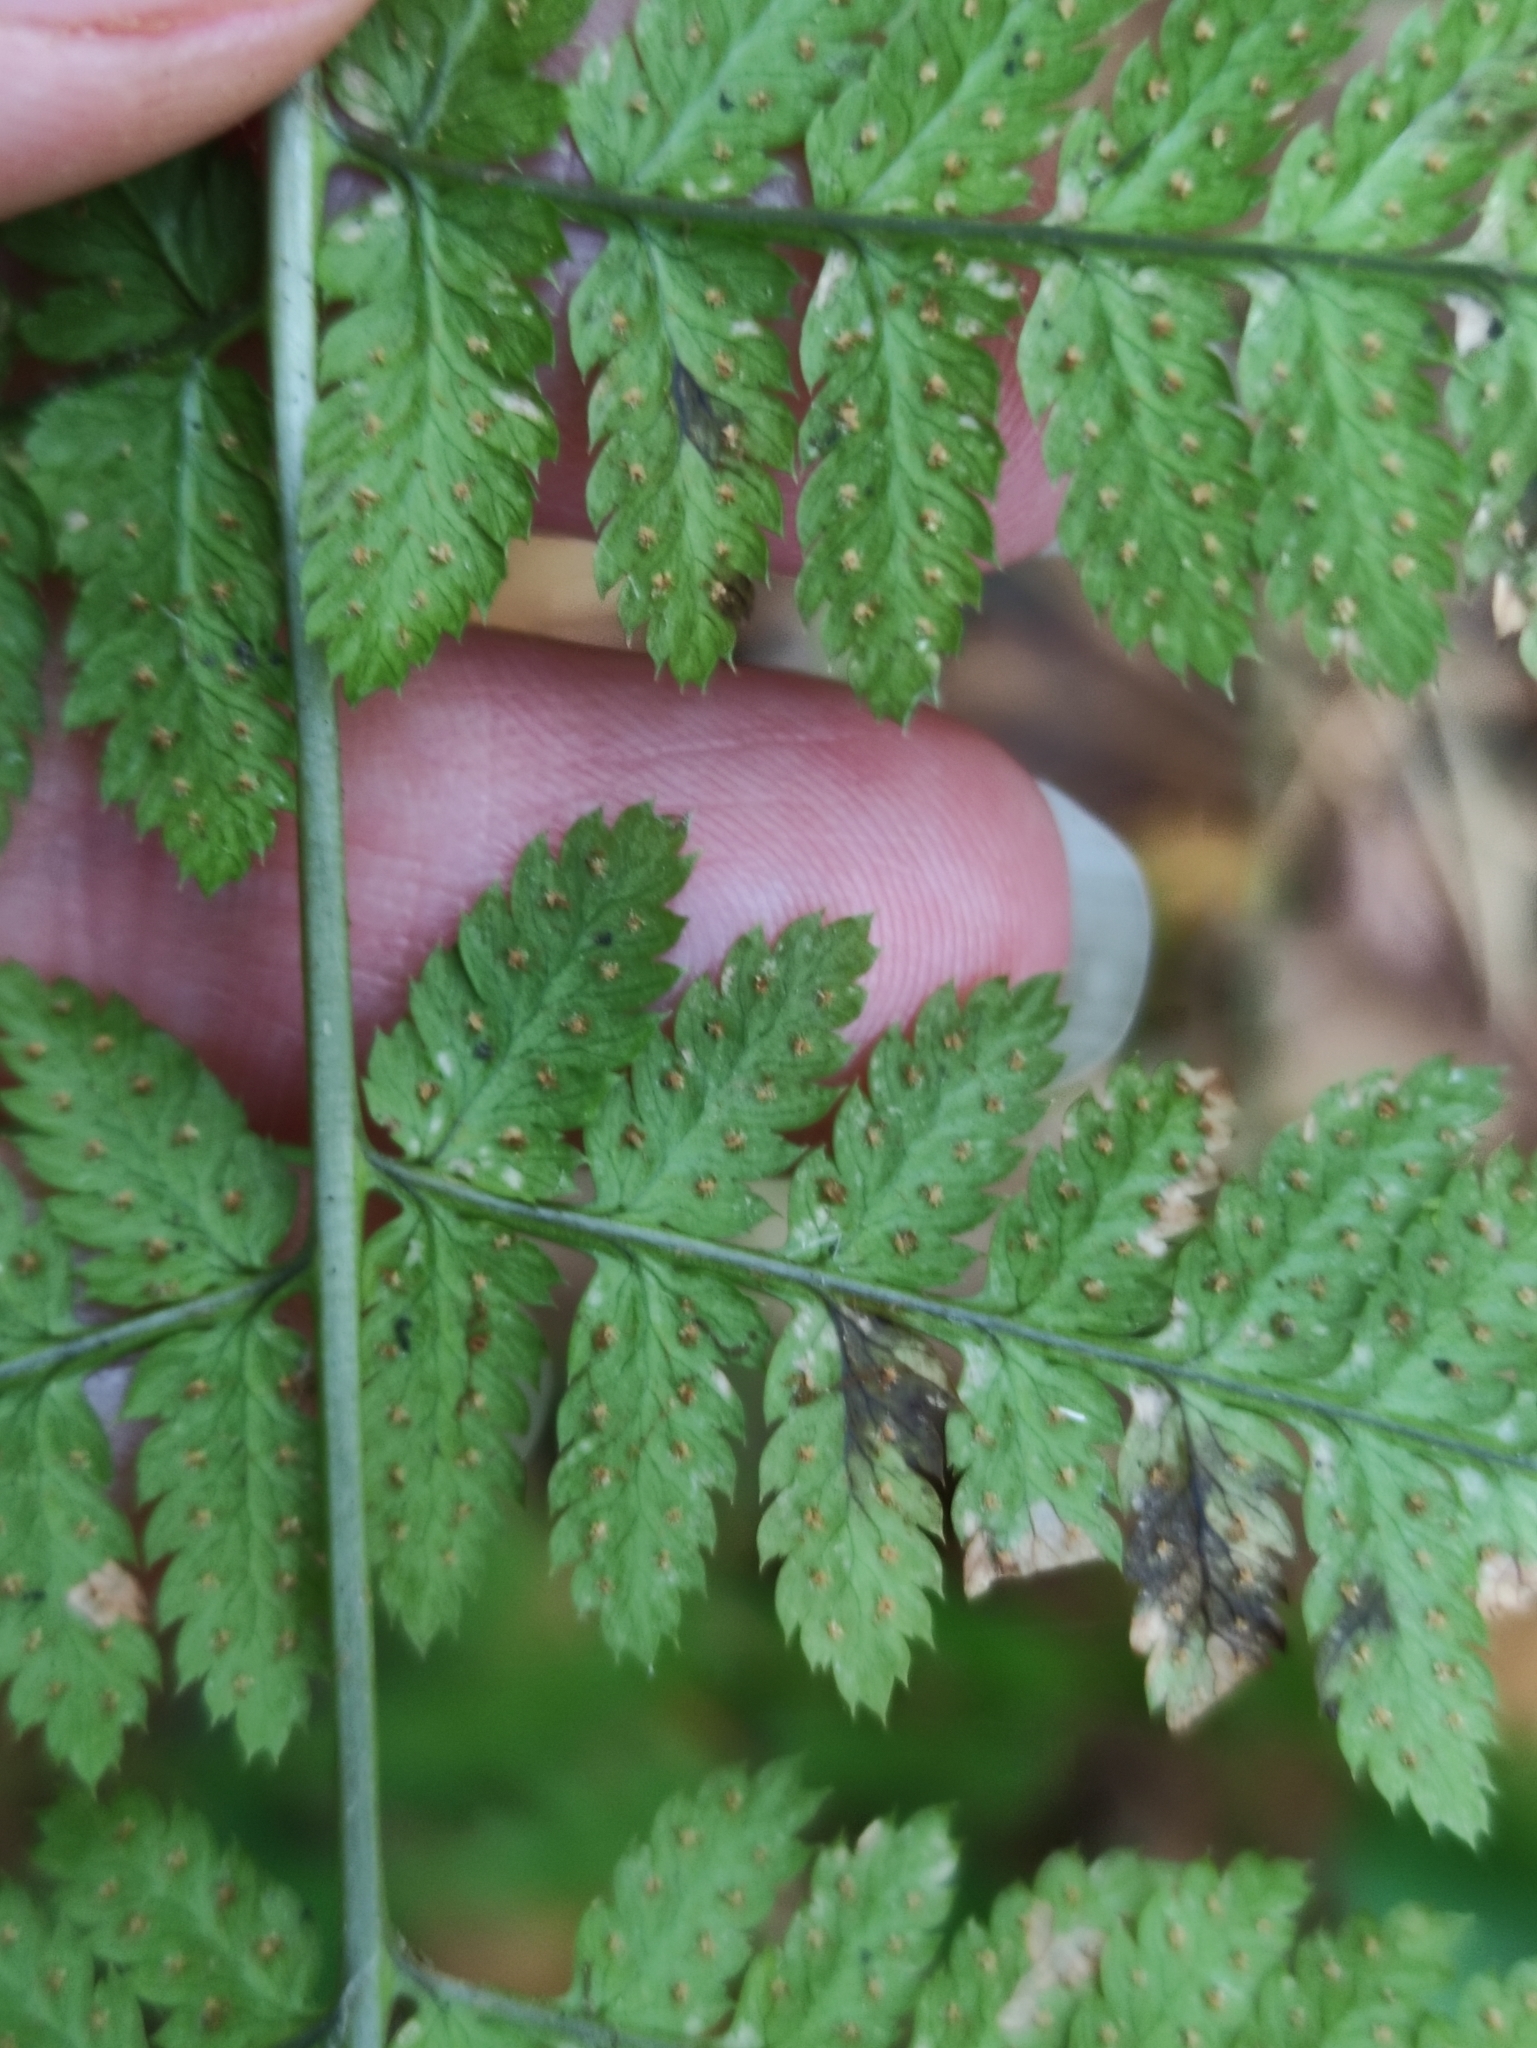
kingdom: Plantae
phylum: Tracheophyta
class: Polypodiopsida
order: Polypodiales
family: Dryopteridaceae
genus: Dryopteris
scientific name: Dryopteris carthusiana
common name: Narrow buckler-fern
